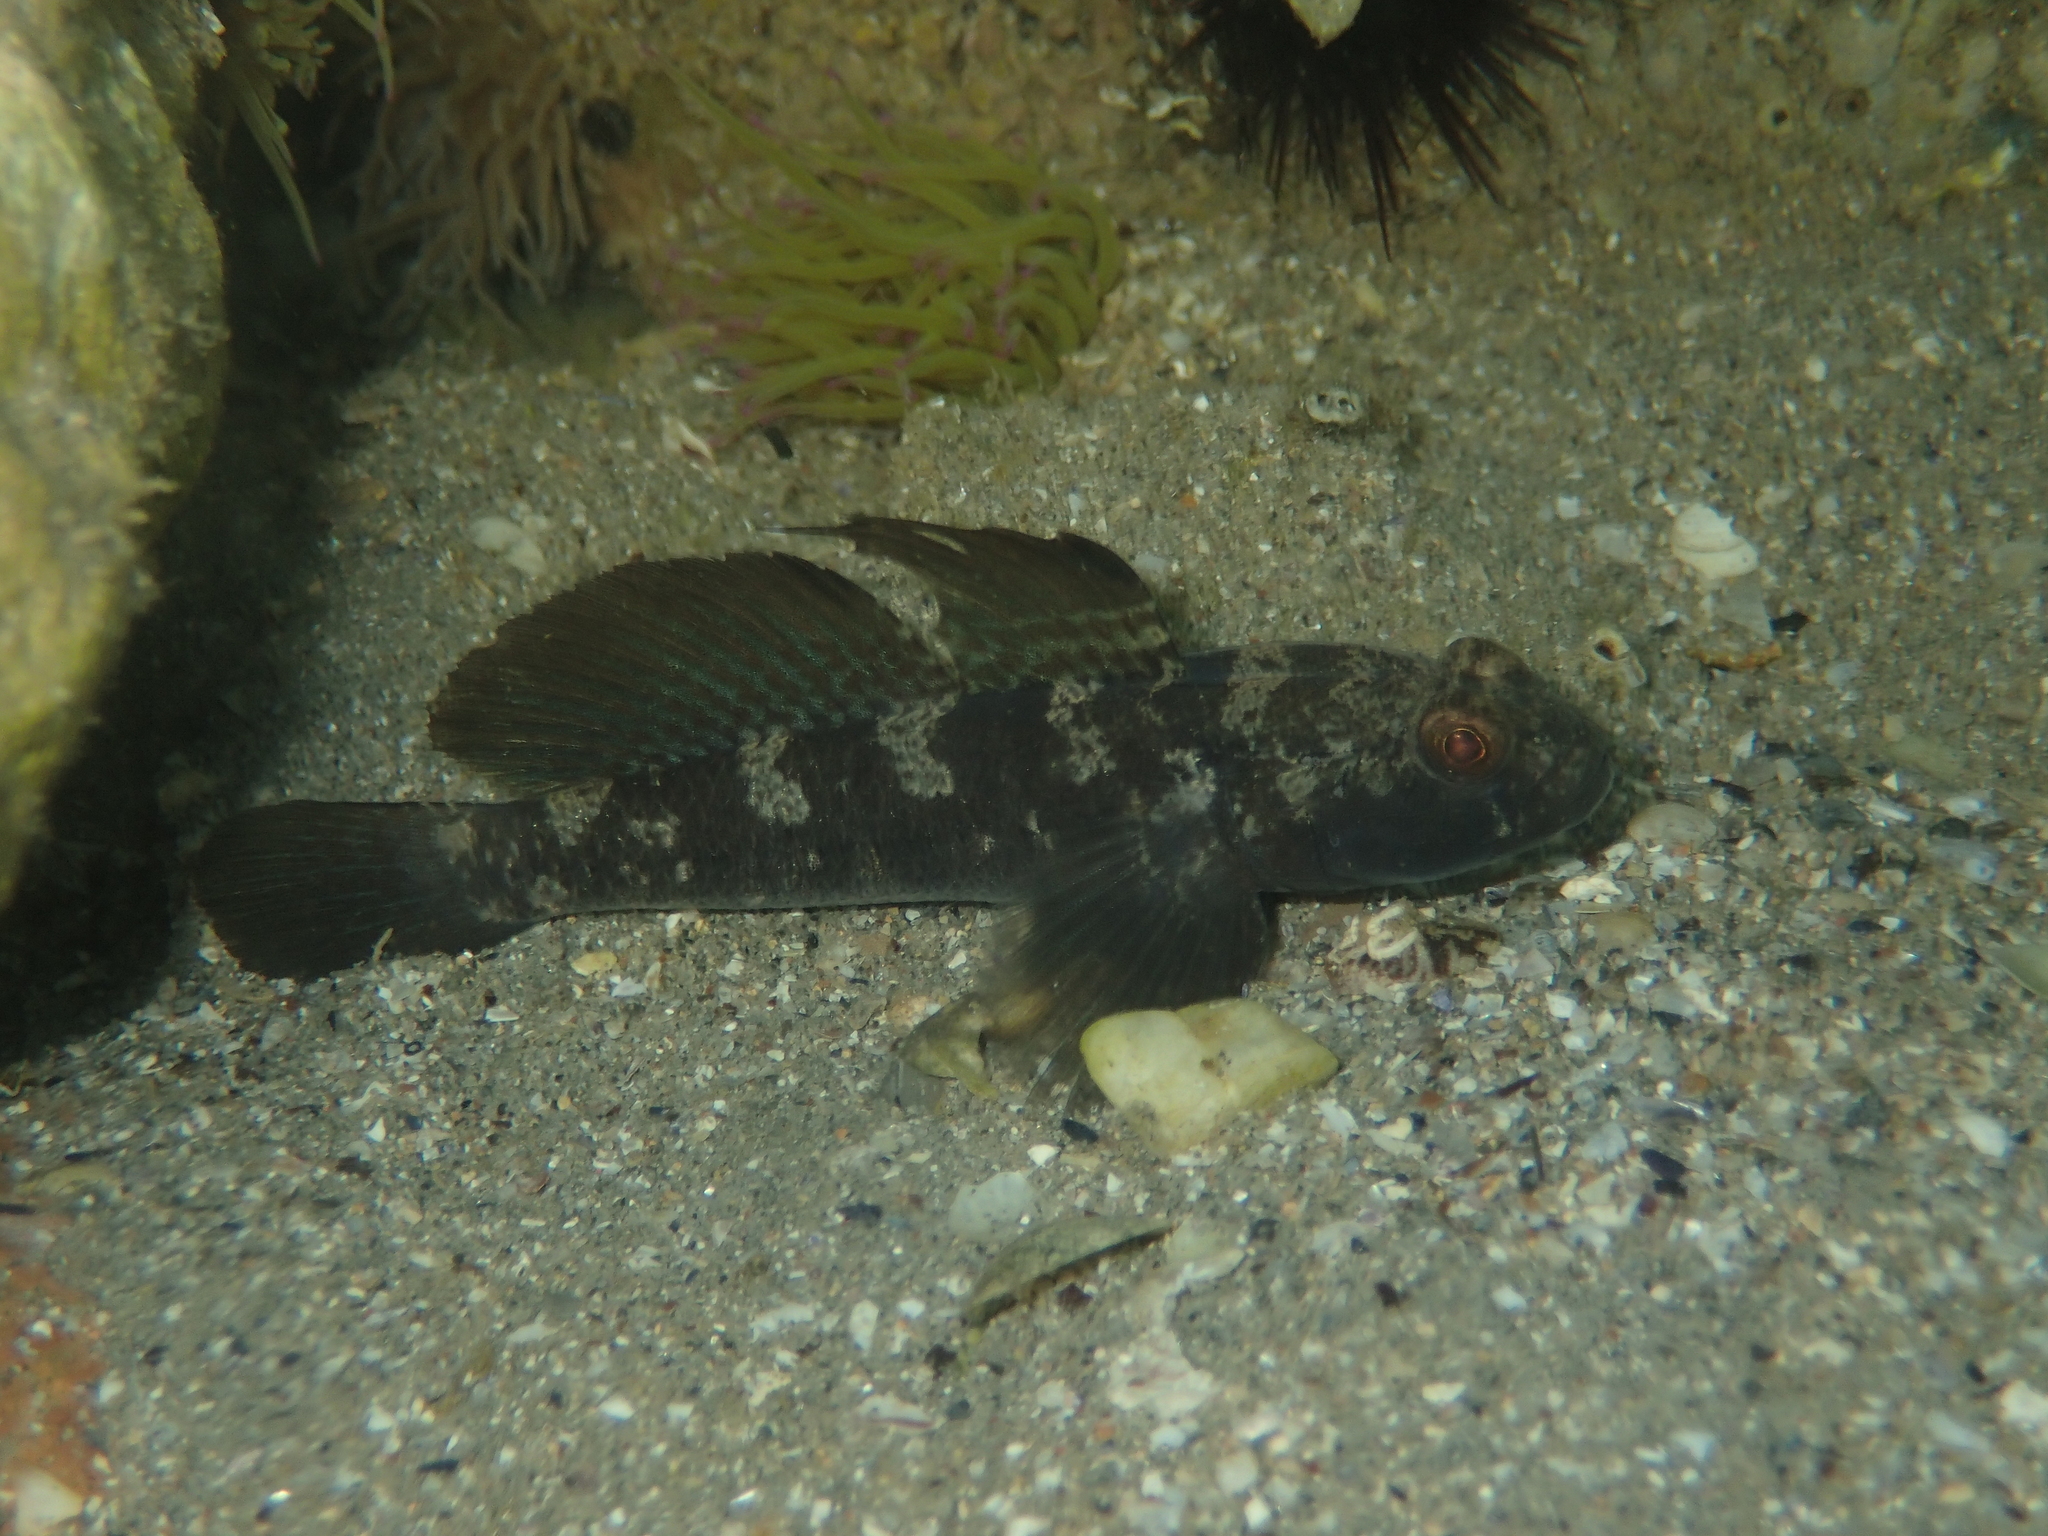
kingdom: Animalia
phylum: Chordata
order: Perciformes
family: Gobiidae
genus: Gobius
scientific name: Gobius niger
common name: Black goby
